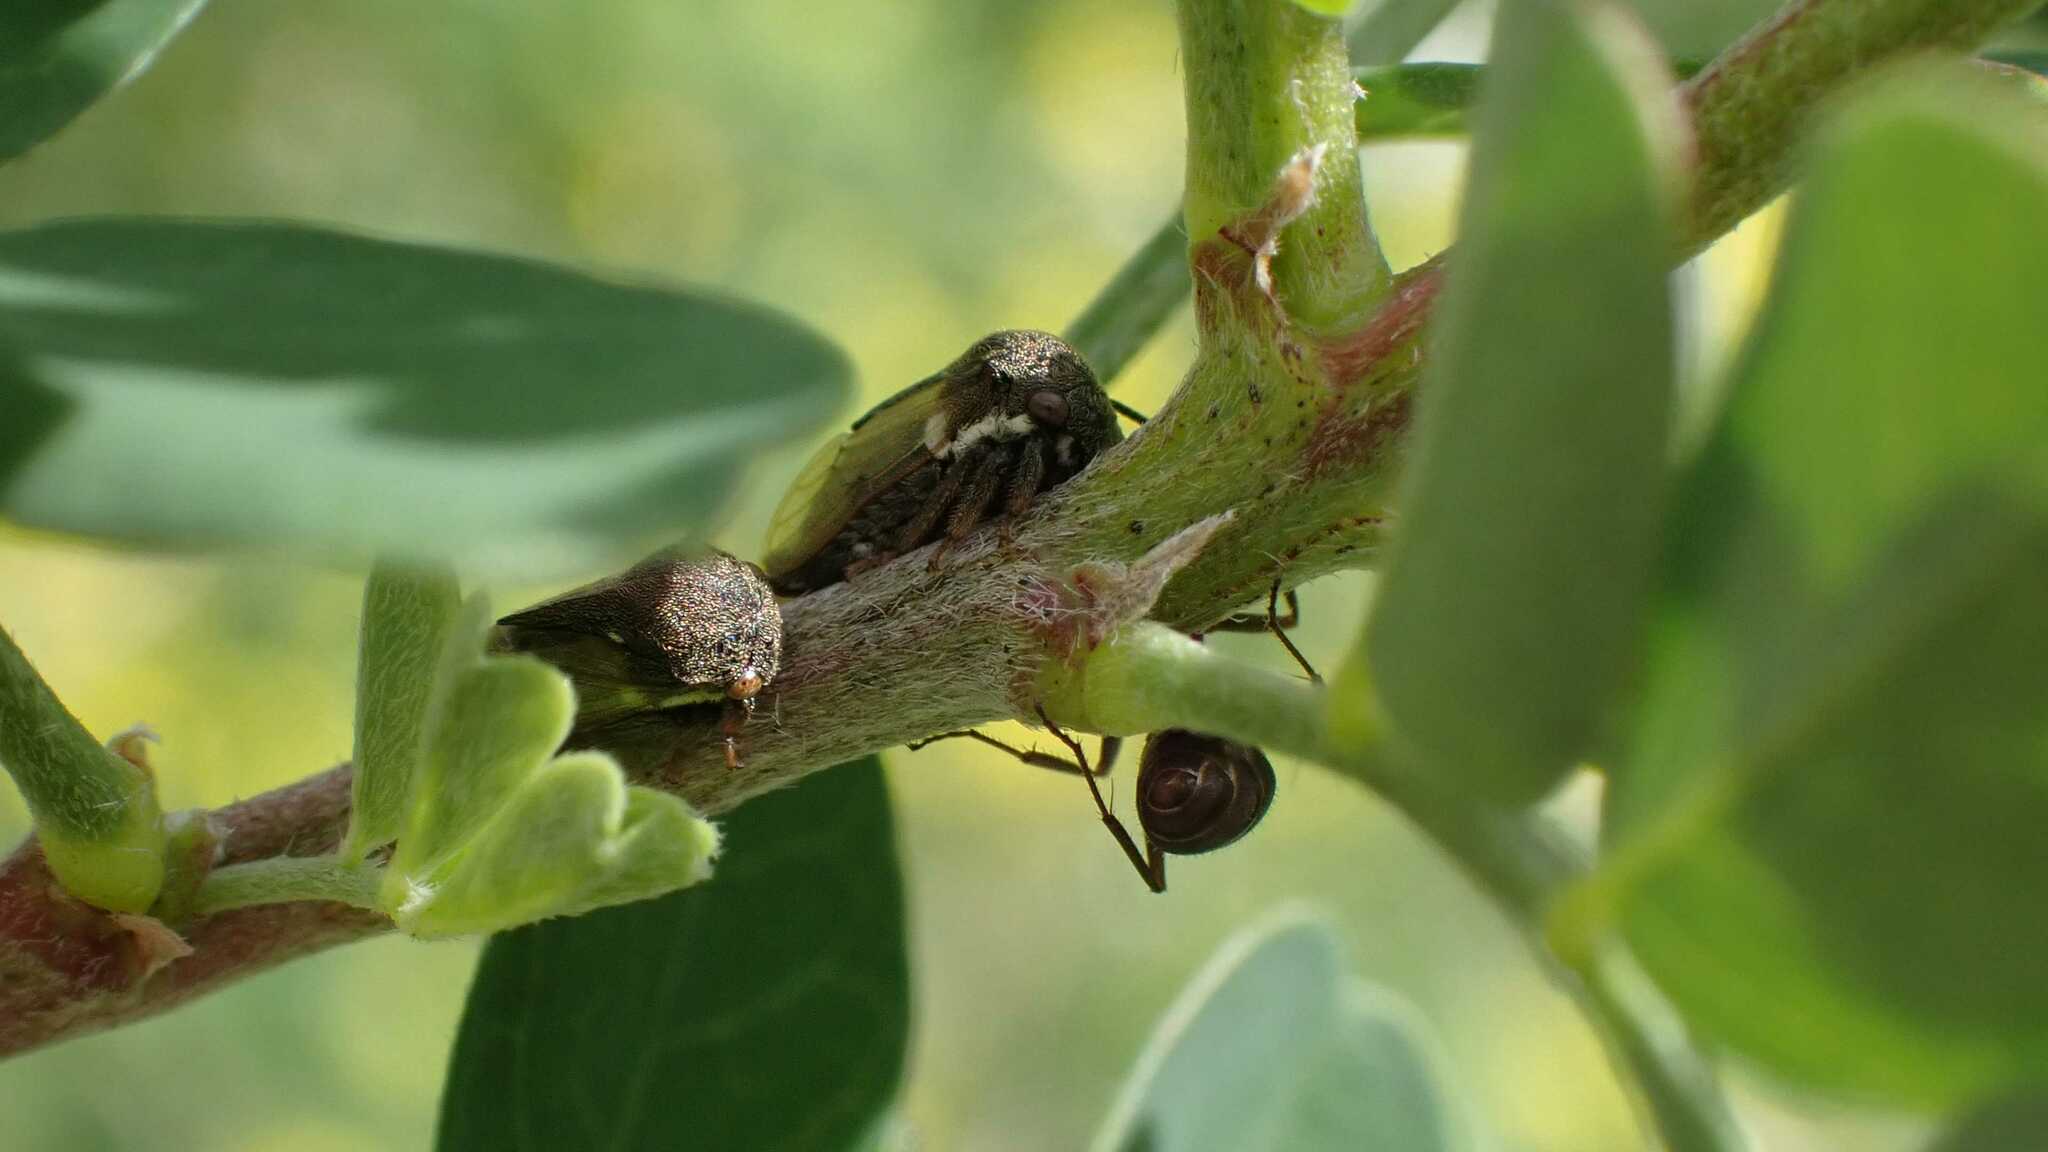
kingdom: Animalia
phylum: Arthropoda
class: Insecta
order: Hemiptera
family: Membracidae
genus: Gargara
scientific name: Gargara genistae
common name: Treehopper
